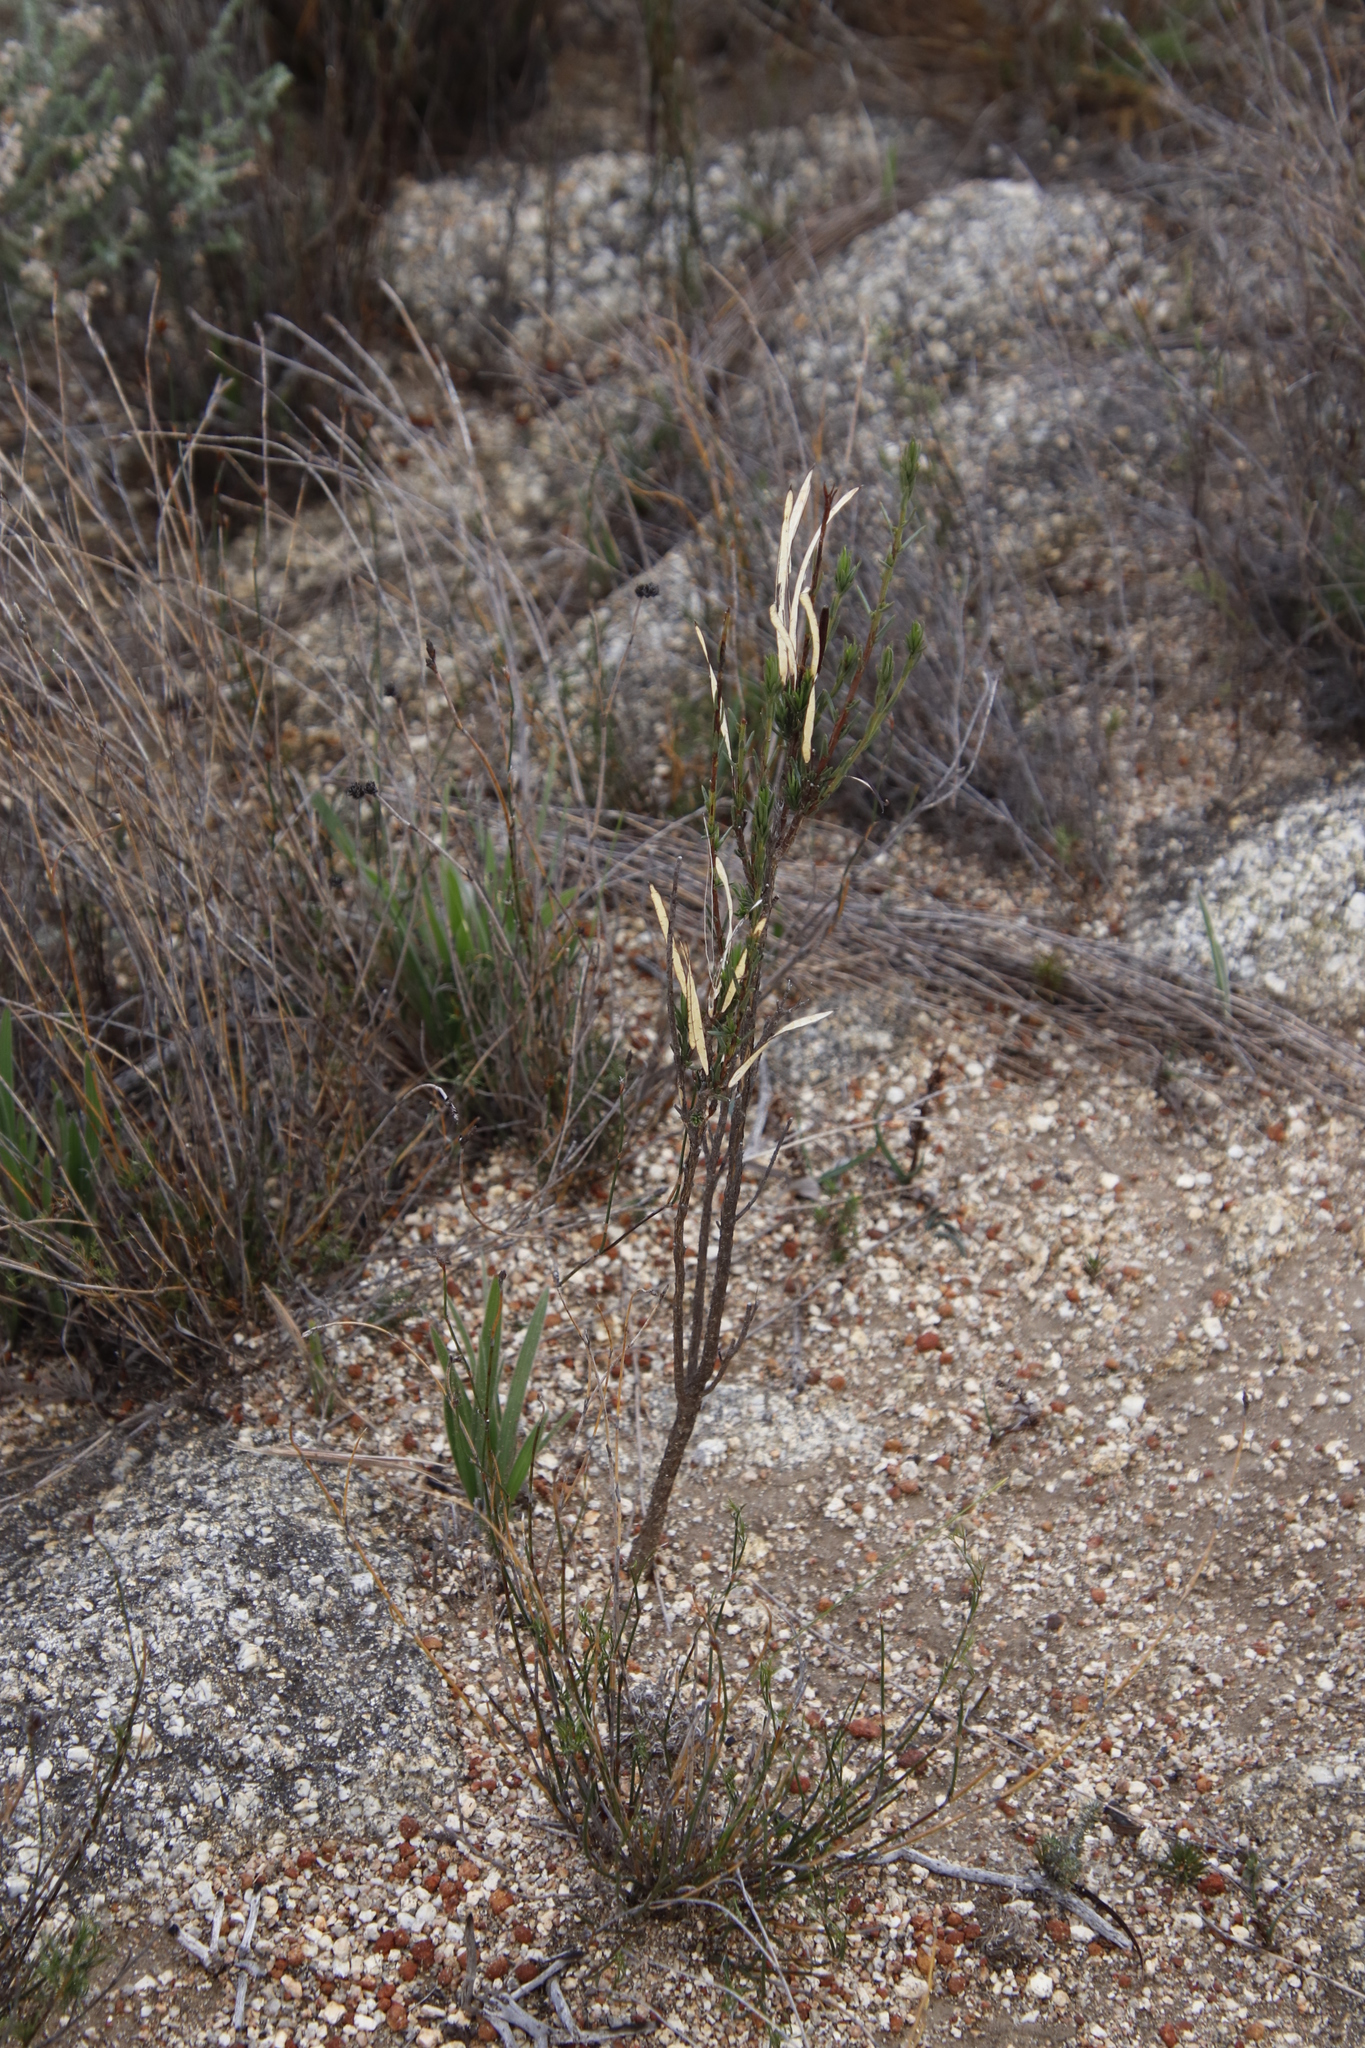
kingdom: Plantae
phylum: Tracheophyta
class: Magnoliopsida
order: Brassicales
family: Brassicaceae
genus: Heliophila
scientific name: Heliophila scoparia
